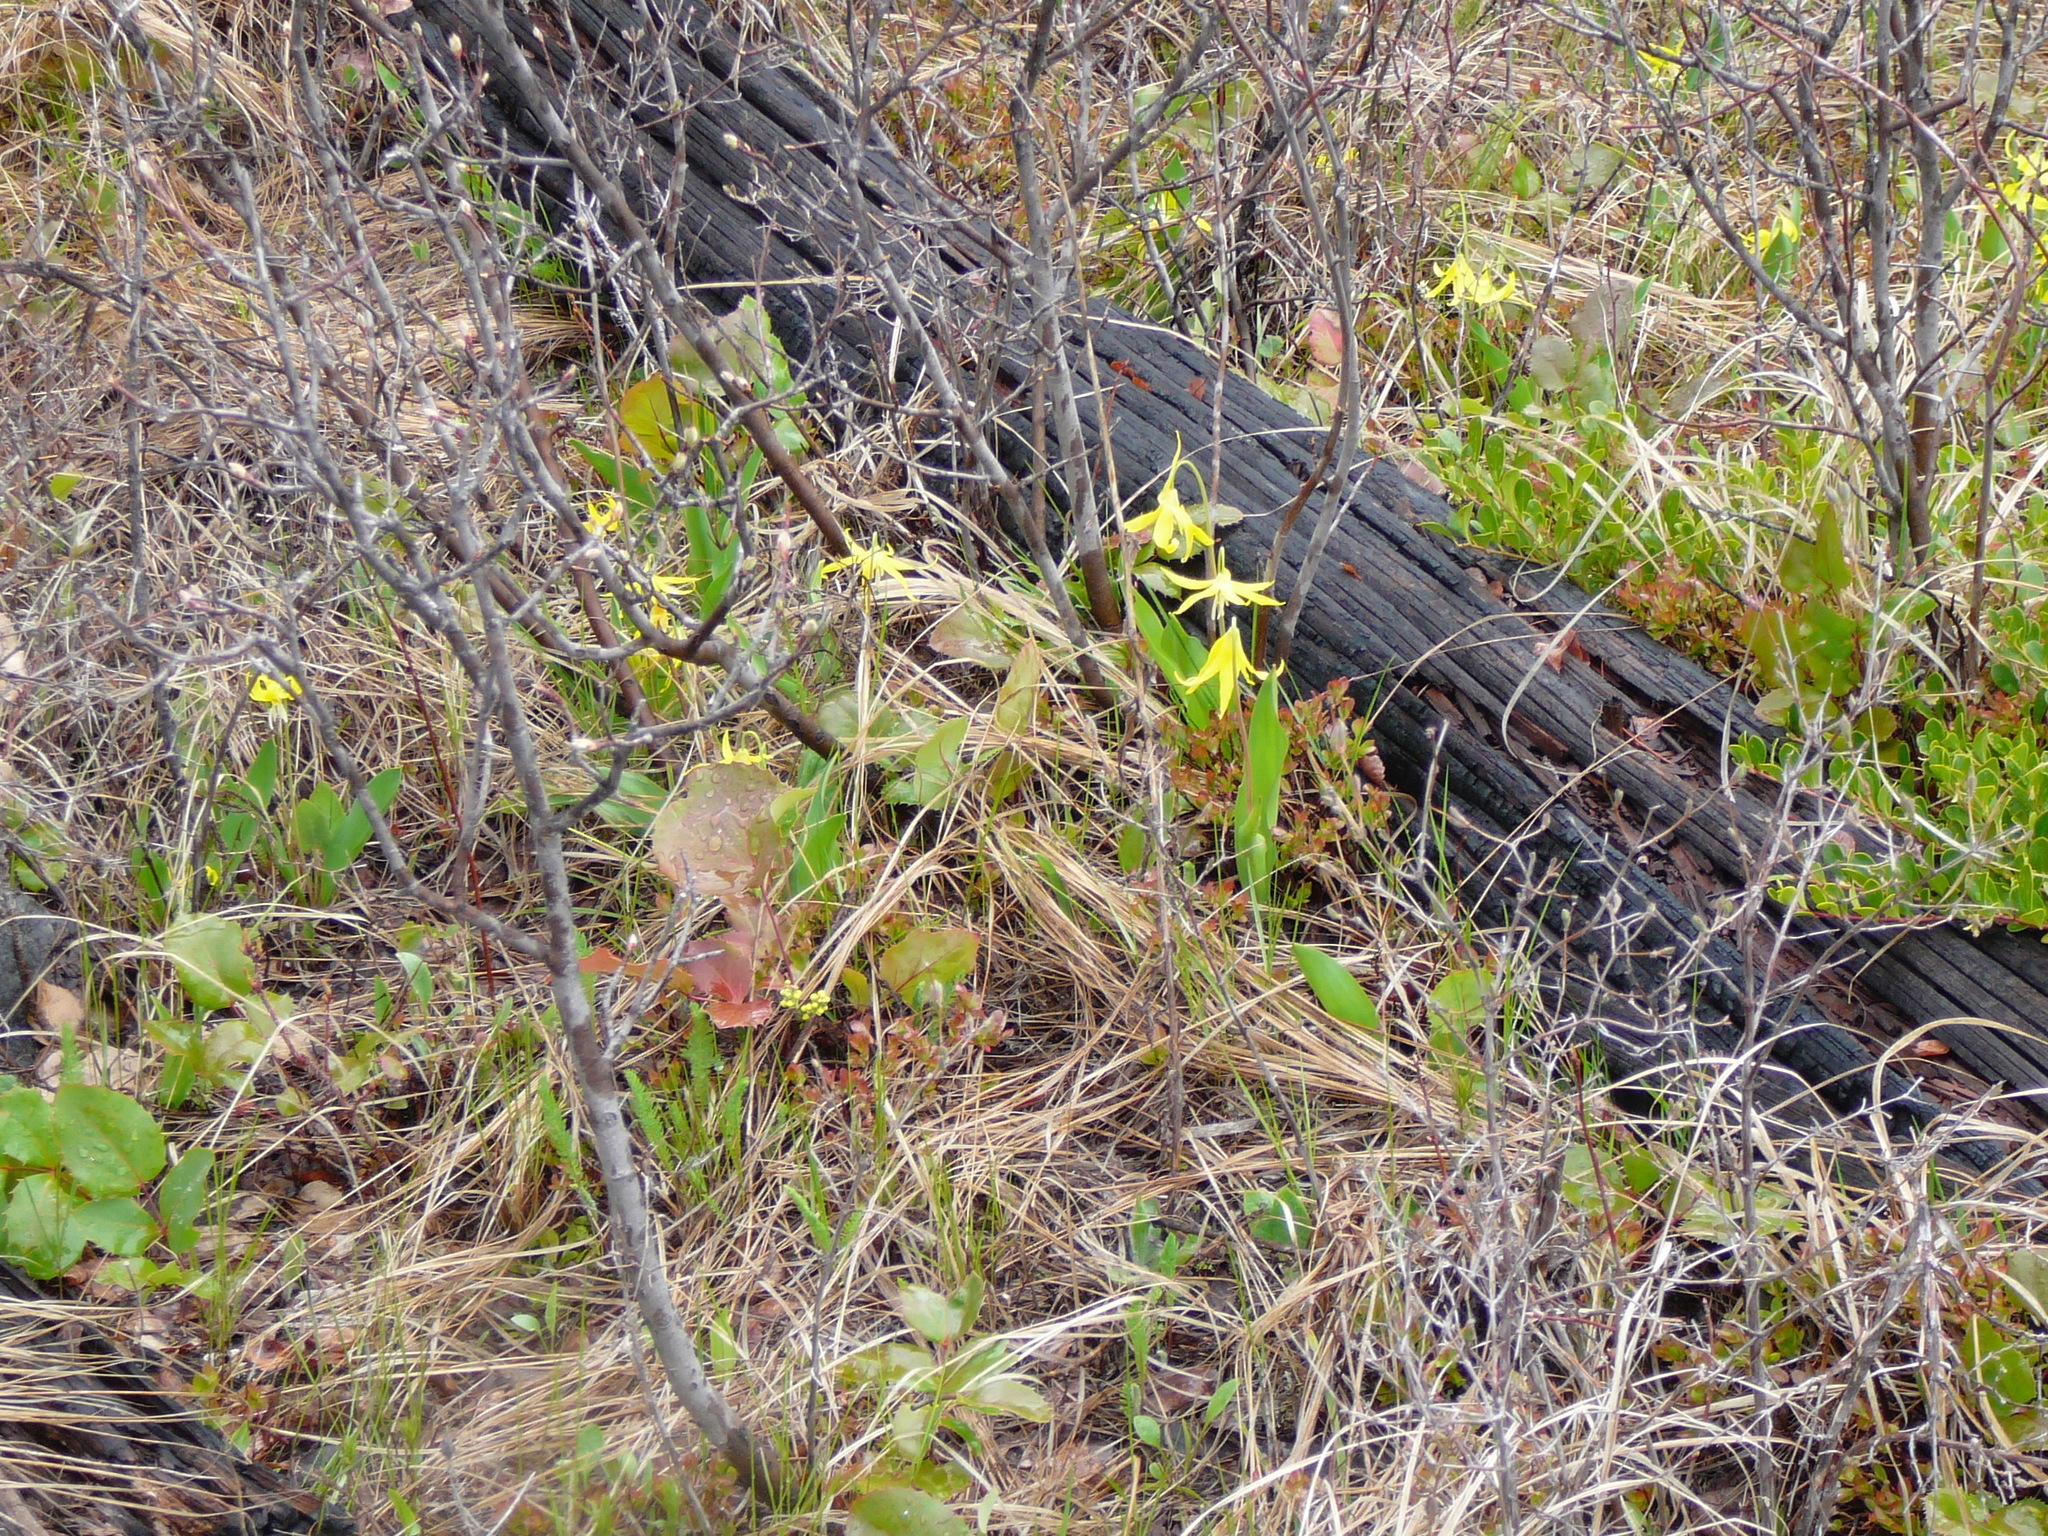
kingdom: Plantae
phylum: Tracheophyta
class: Liliopsida
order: Liliales
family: Liliaceae
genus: Erythronium
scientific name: Erythronium grandiflorum
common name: Avalanche-lily
